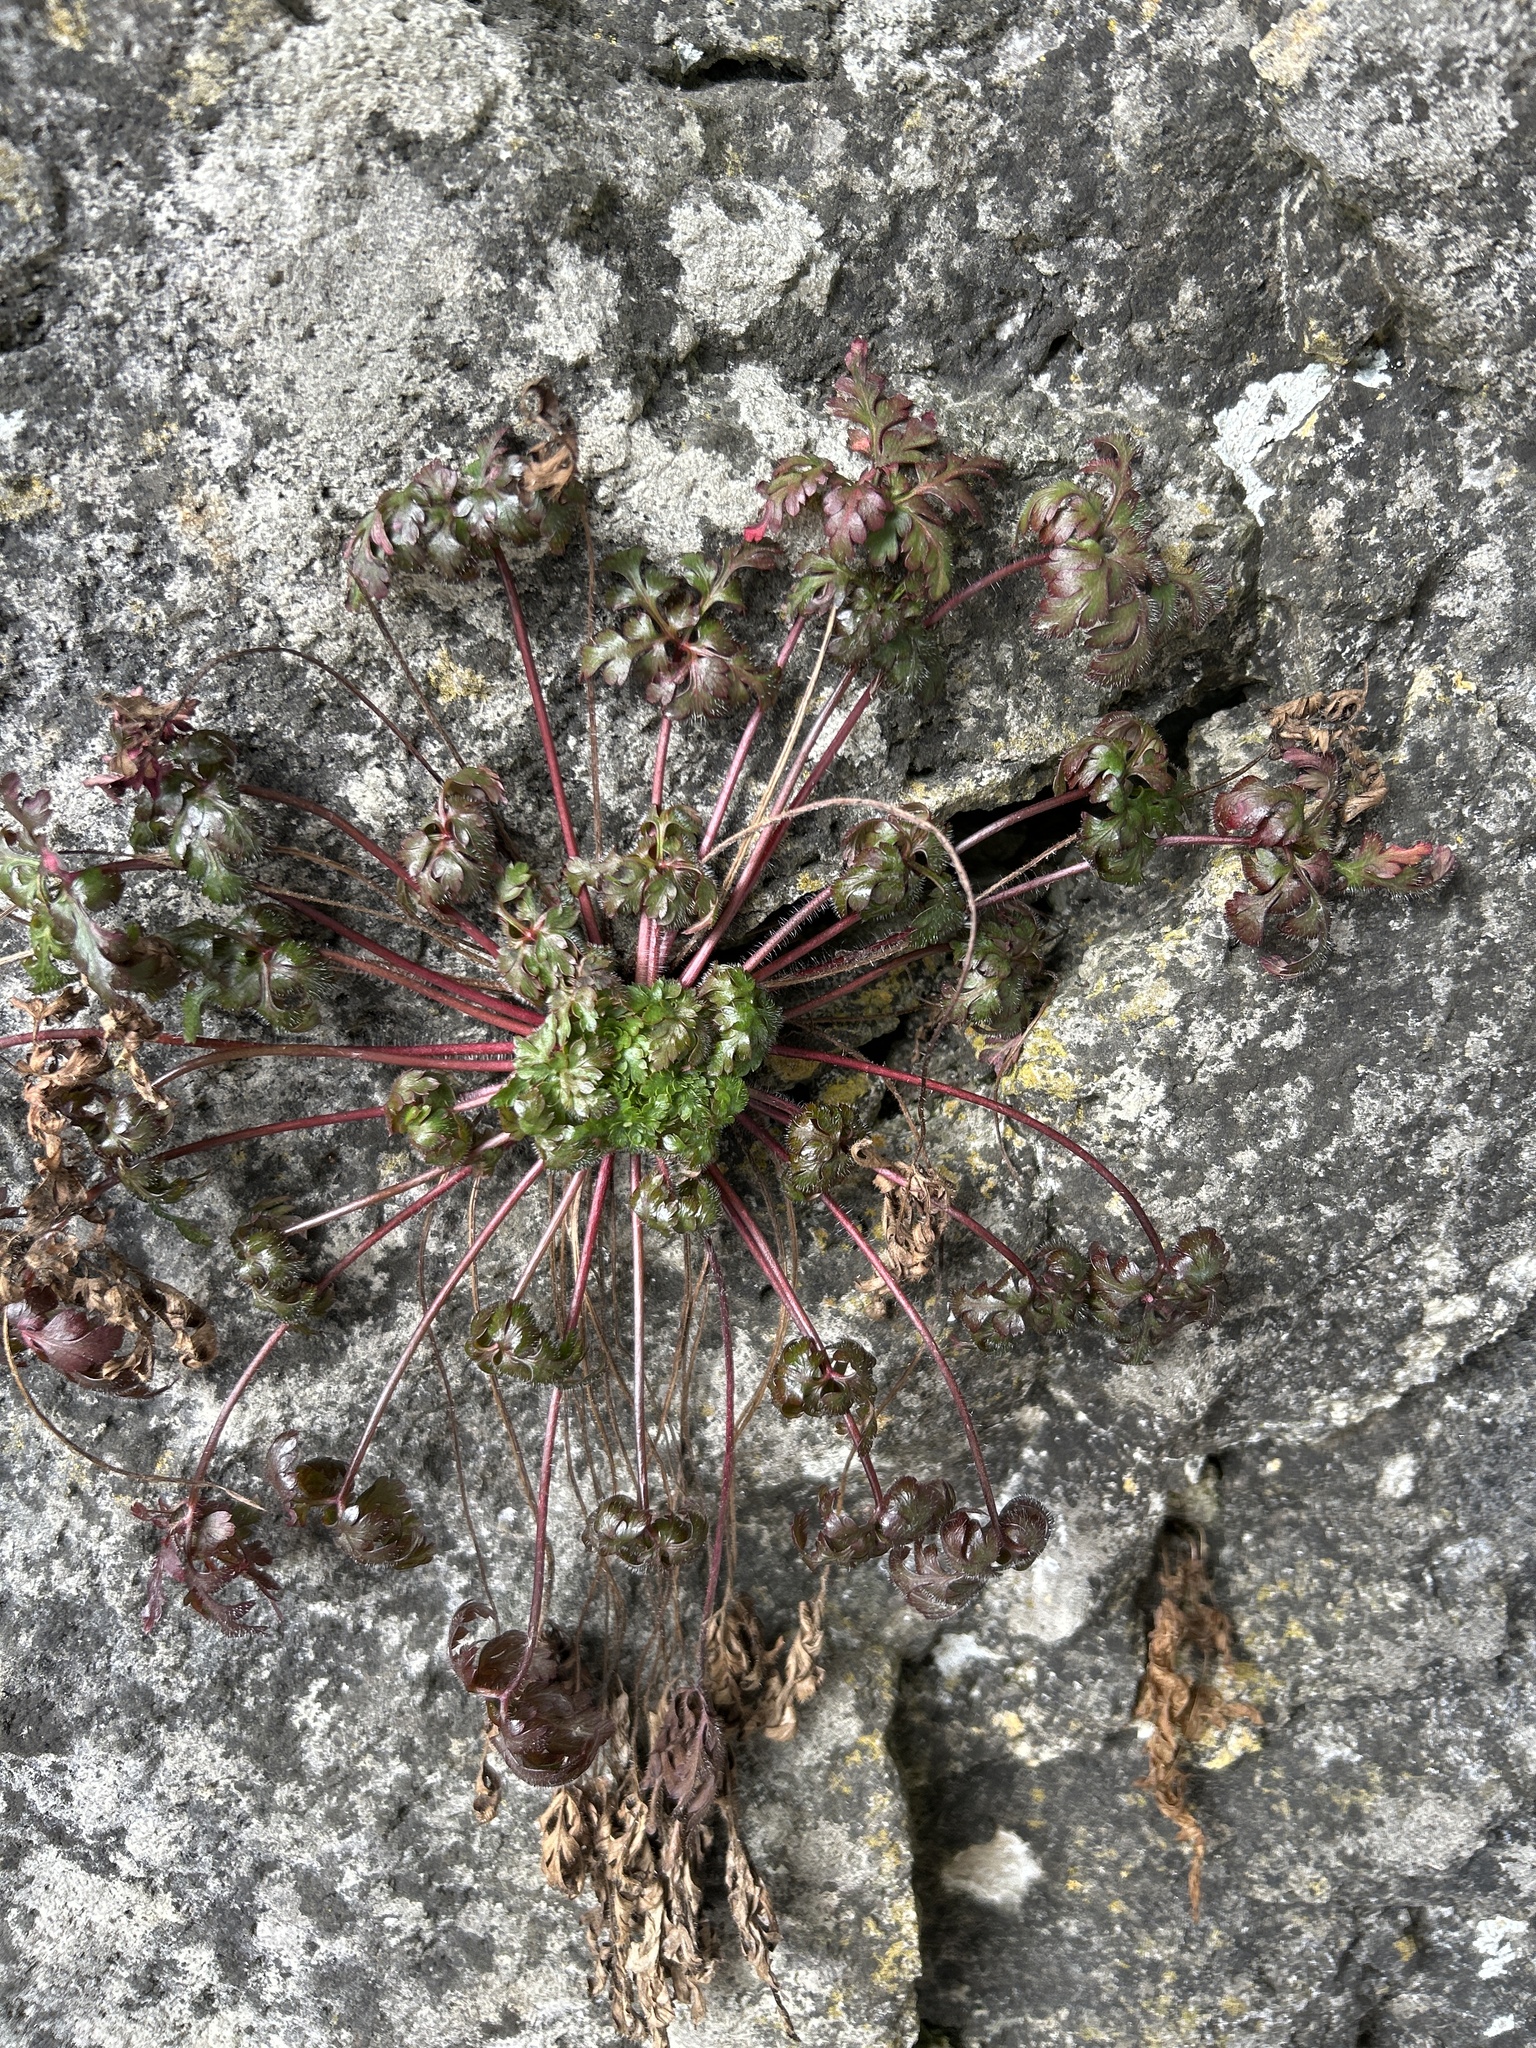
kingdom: Plantae
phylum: Tracheophyta
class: Magnoliopsida
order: Geraniales
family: Geraniaceae
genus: Geranium
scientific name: Geranium robertianum
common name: Herb-robert
